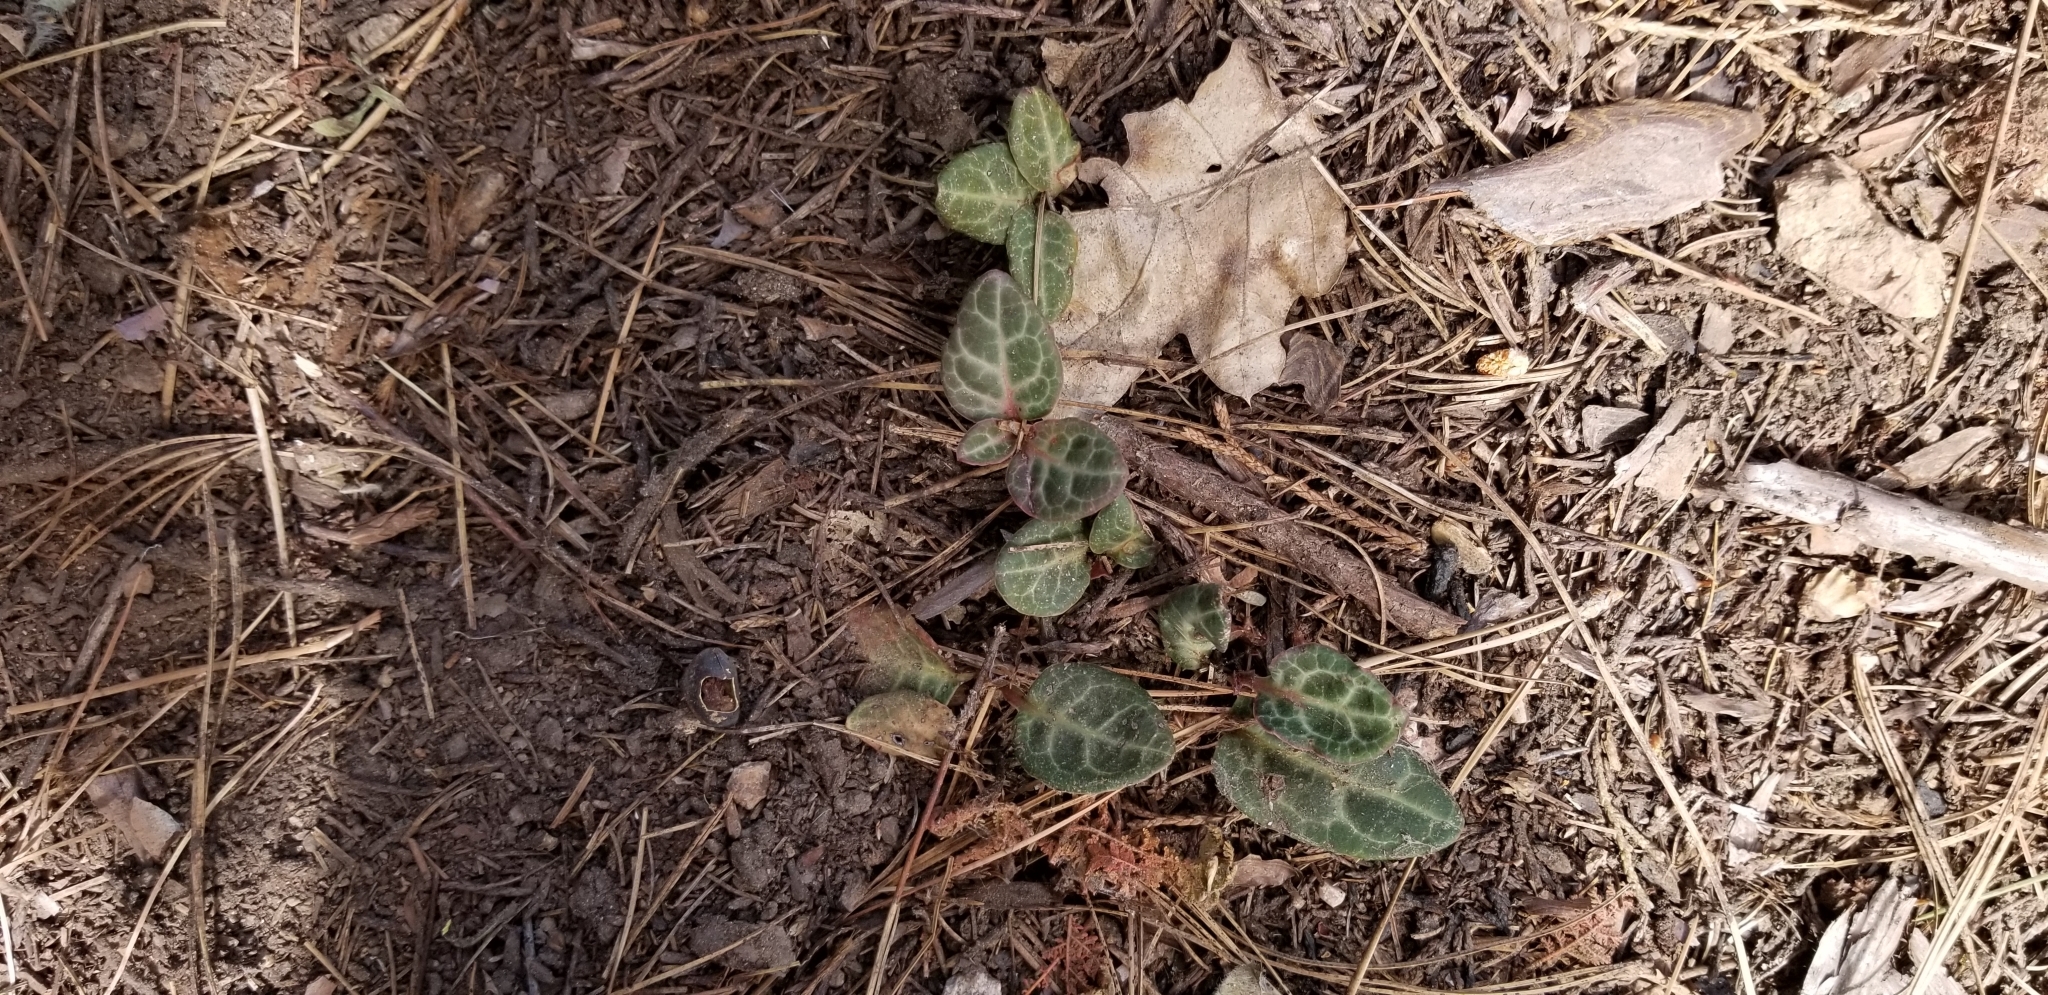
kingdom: Plantae
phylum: Tracheophyta
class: Magnoliopsida
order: Ericales
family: Ericaceae
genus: Pyrola
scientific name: Pyrola picta
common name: White-vein wintergreen
